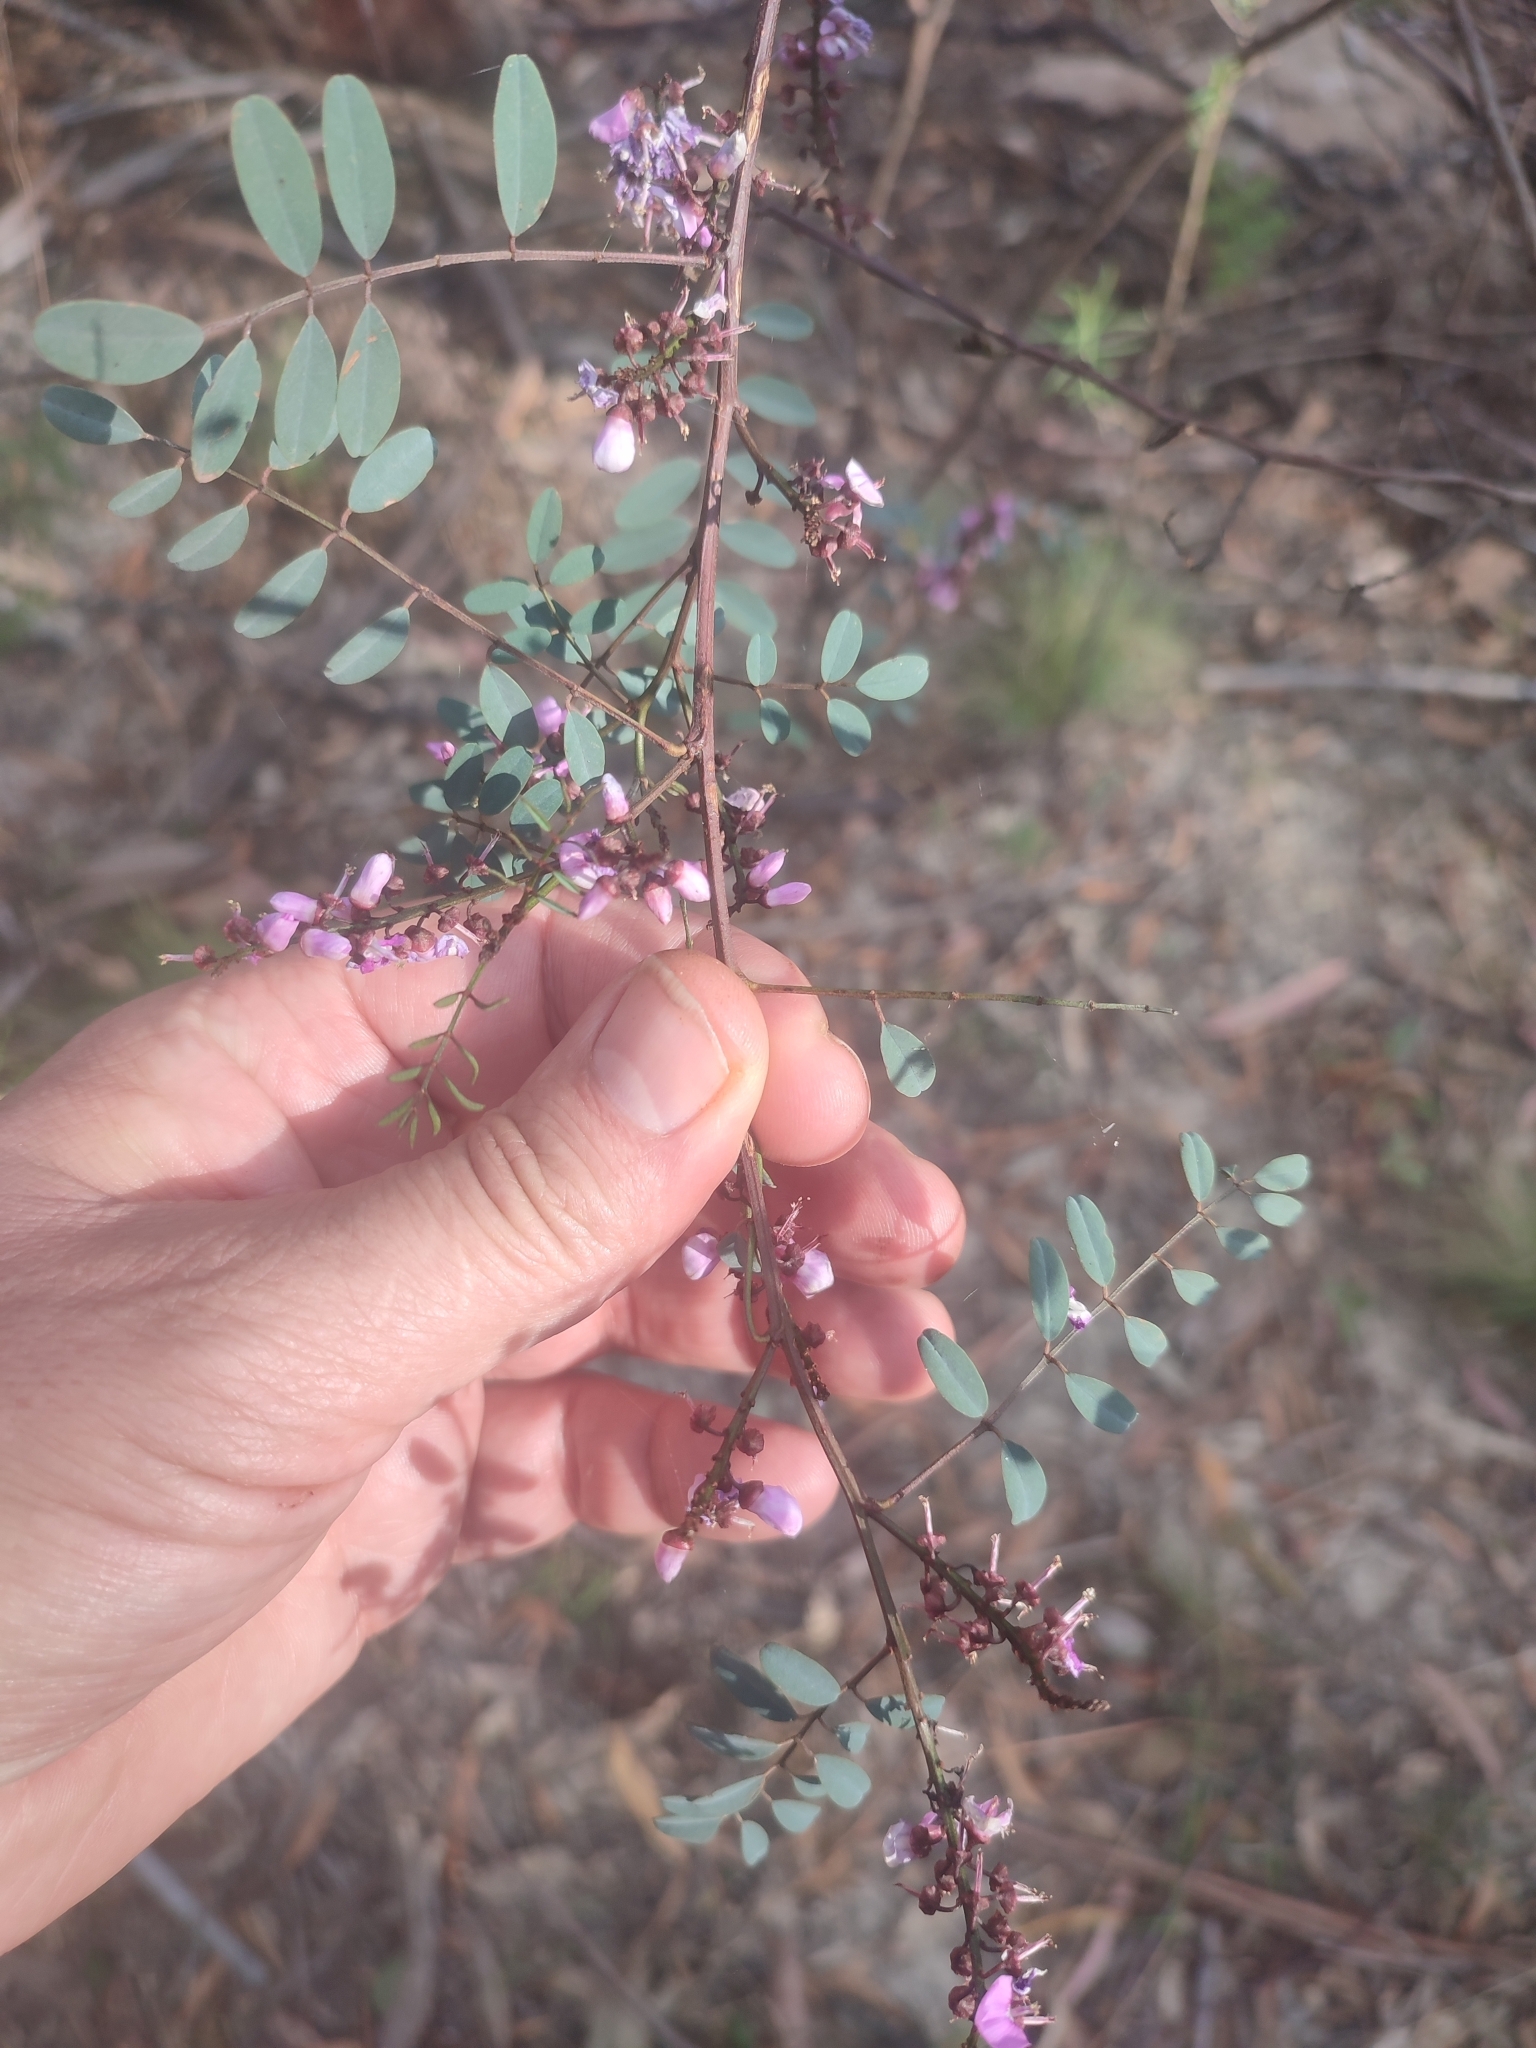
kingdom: Plantae
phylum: Tracheophyta
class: Magnoliopsida
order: Fabales
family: Fabaceae
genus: Indigofera
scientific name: Indigofera australis
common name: Australian indigo
